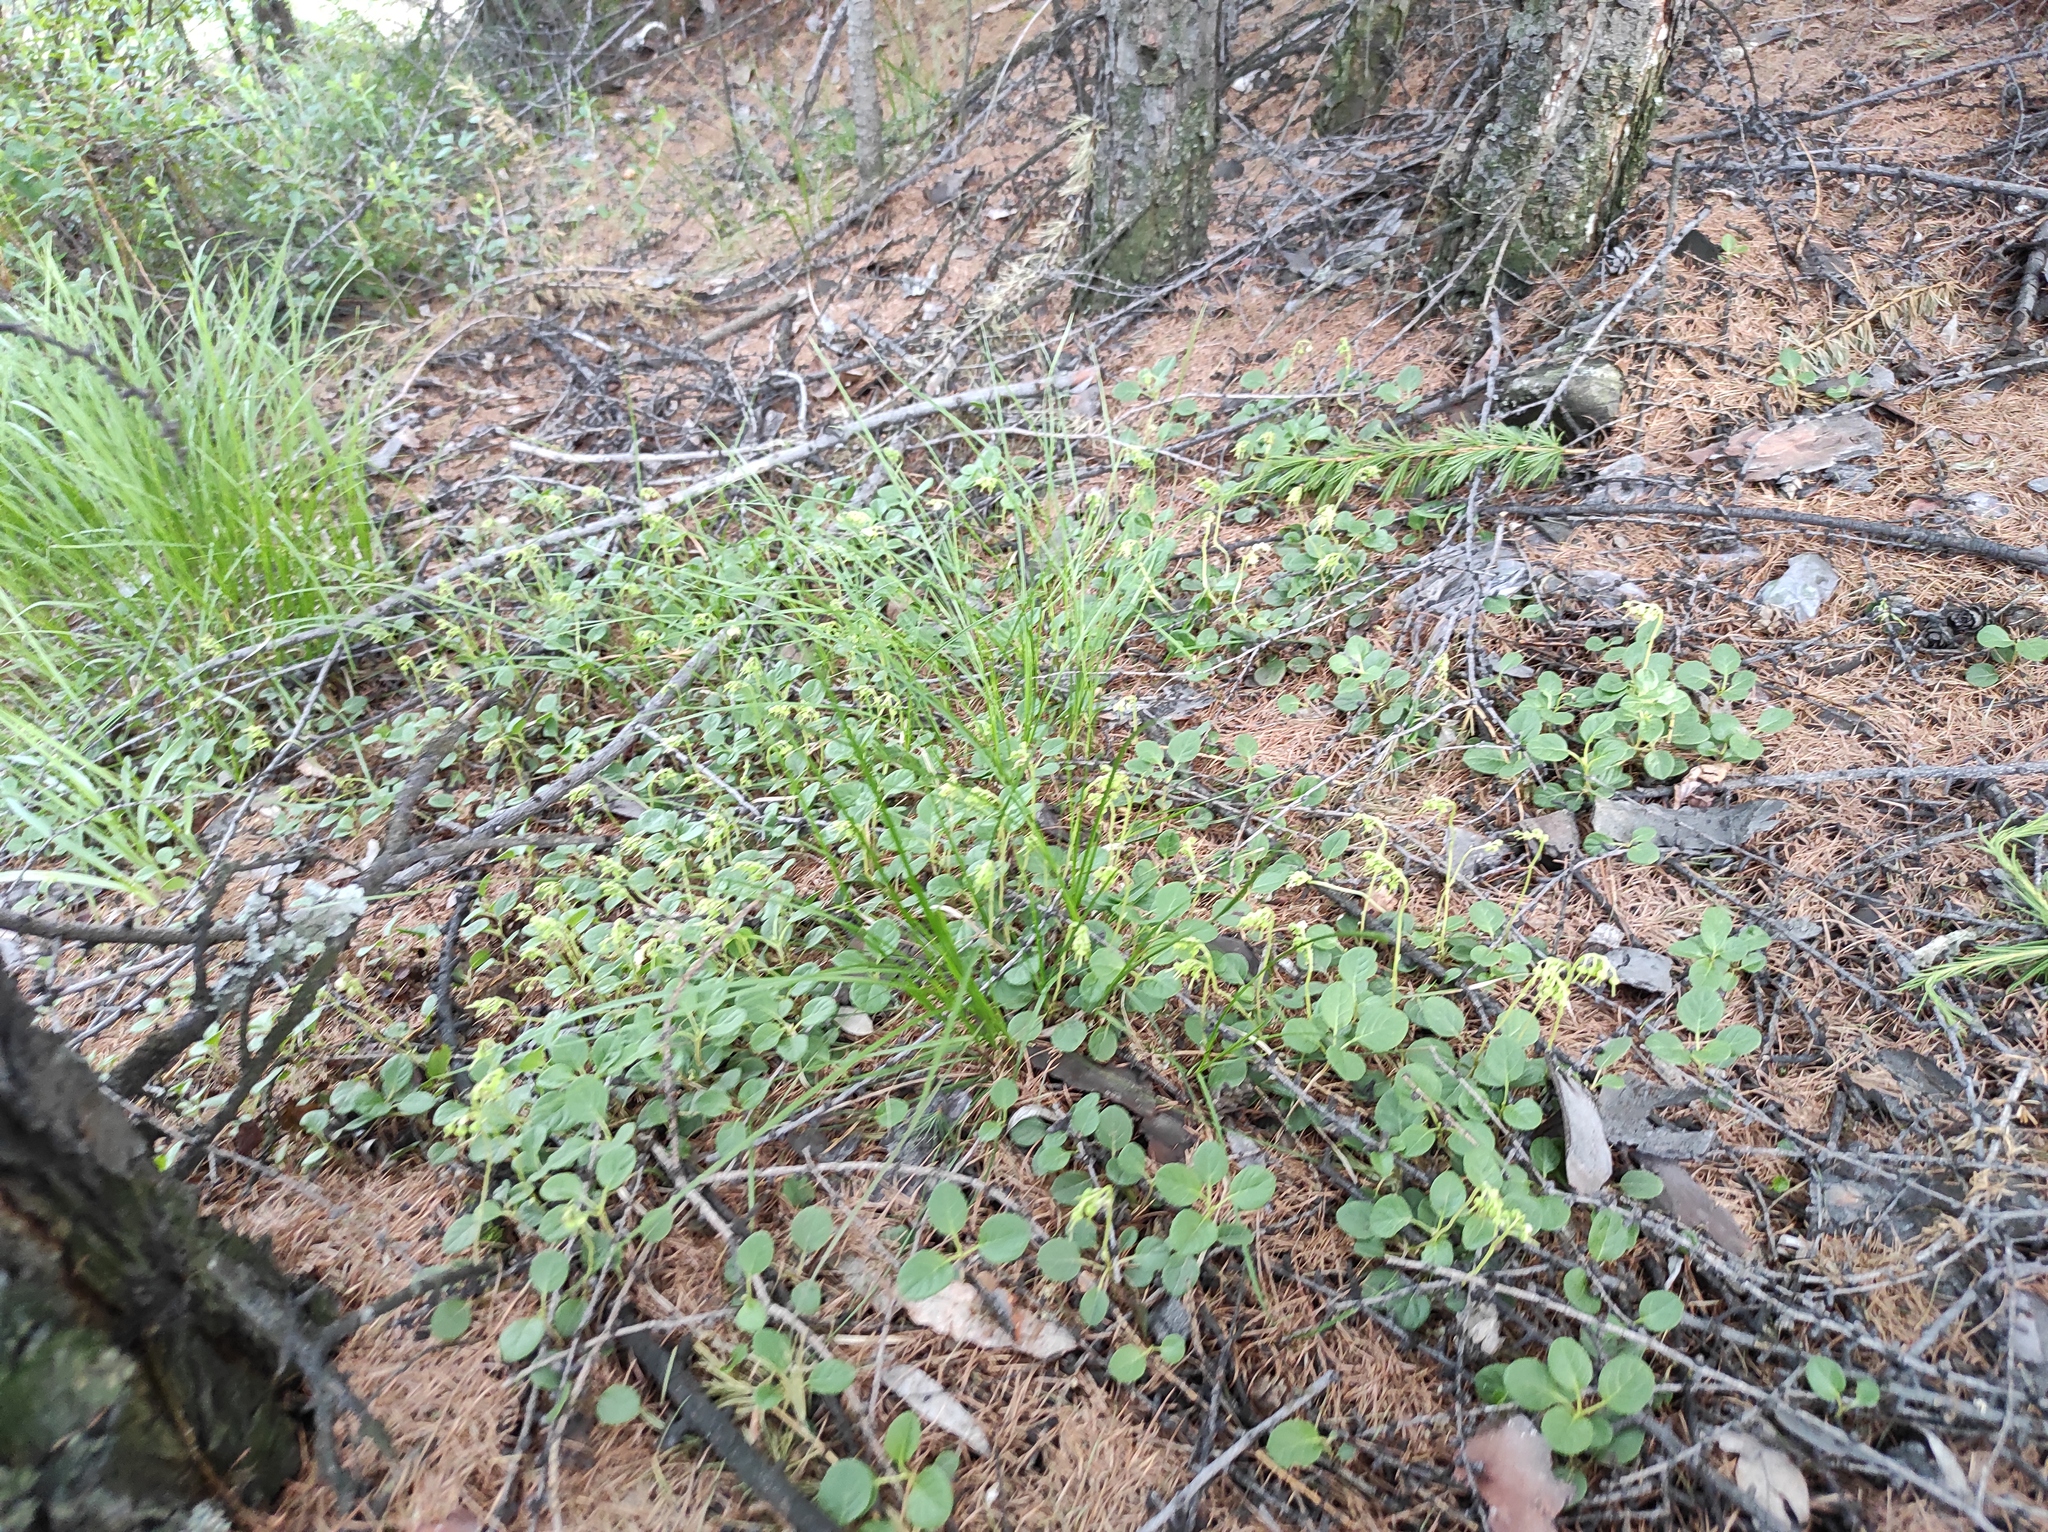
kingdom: Plantae
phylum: Tracheophyta
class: Magnoliopsida
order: Ericales
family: Ericaceae
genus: Orthilia
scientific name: Orthilia secunda
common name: One-sided orthilia
